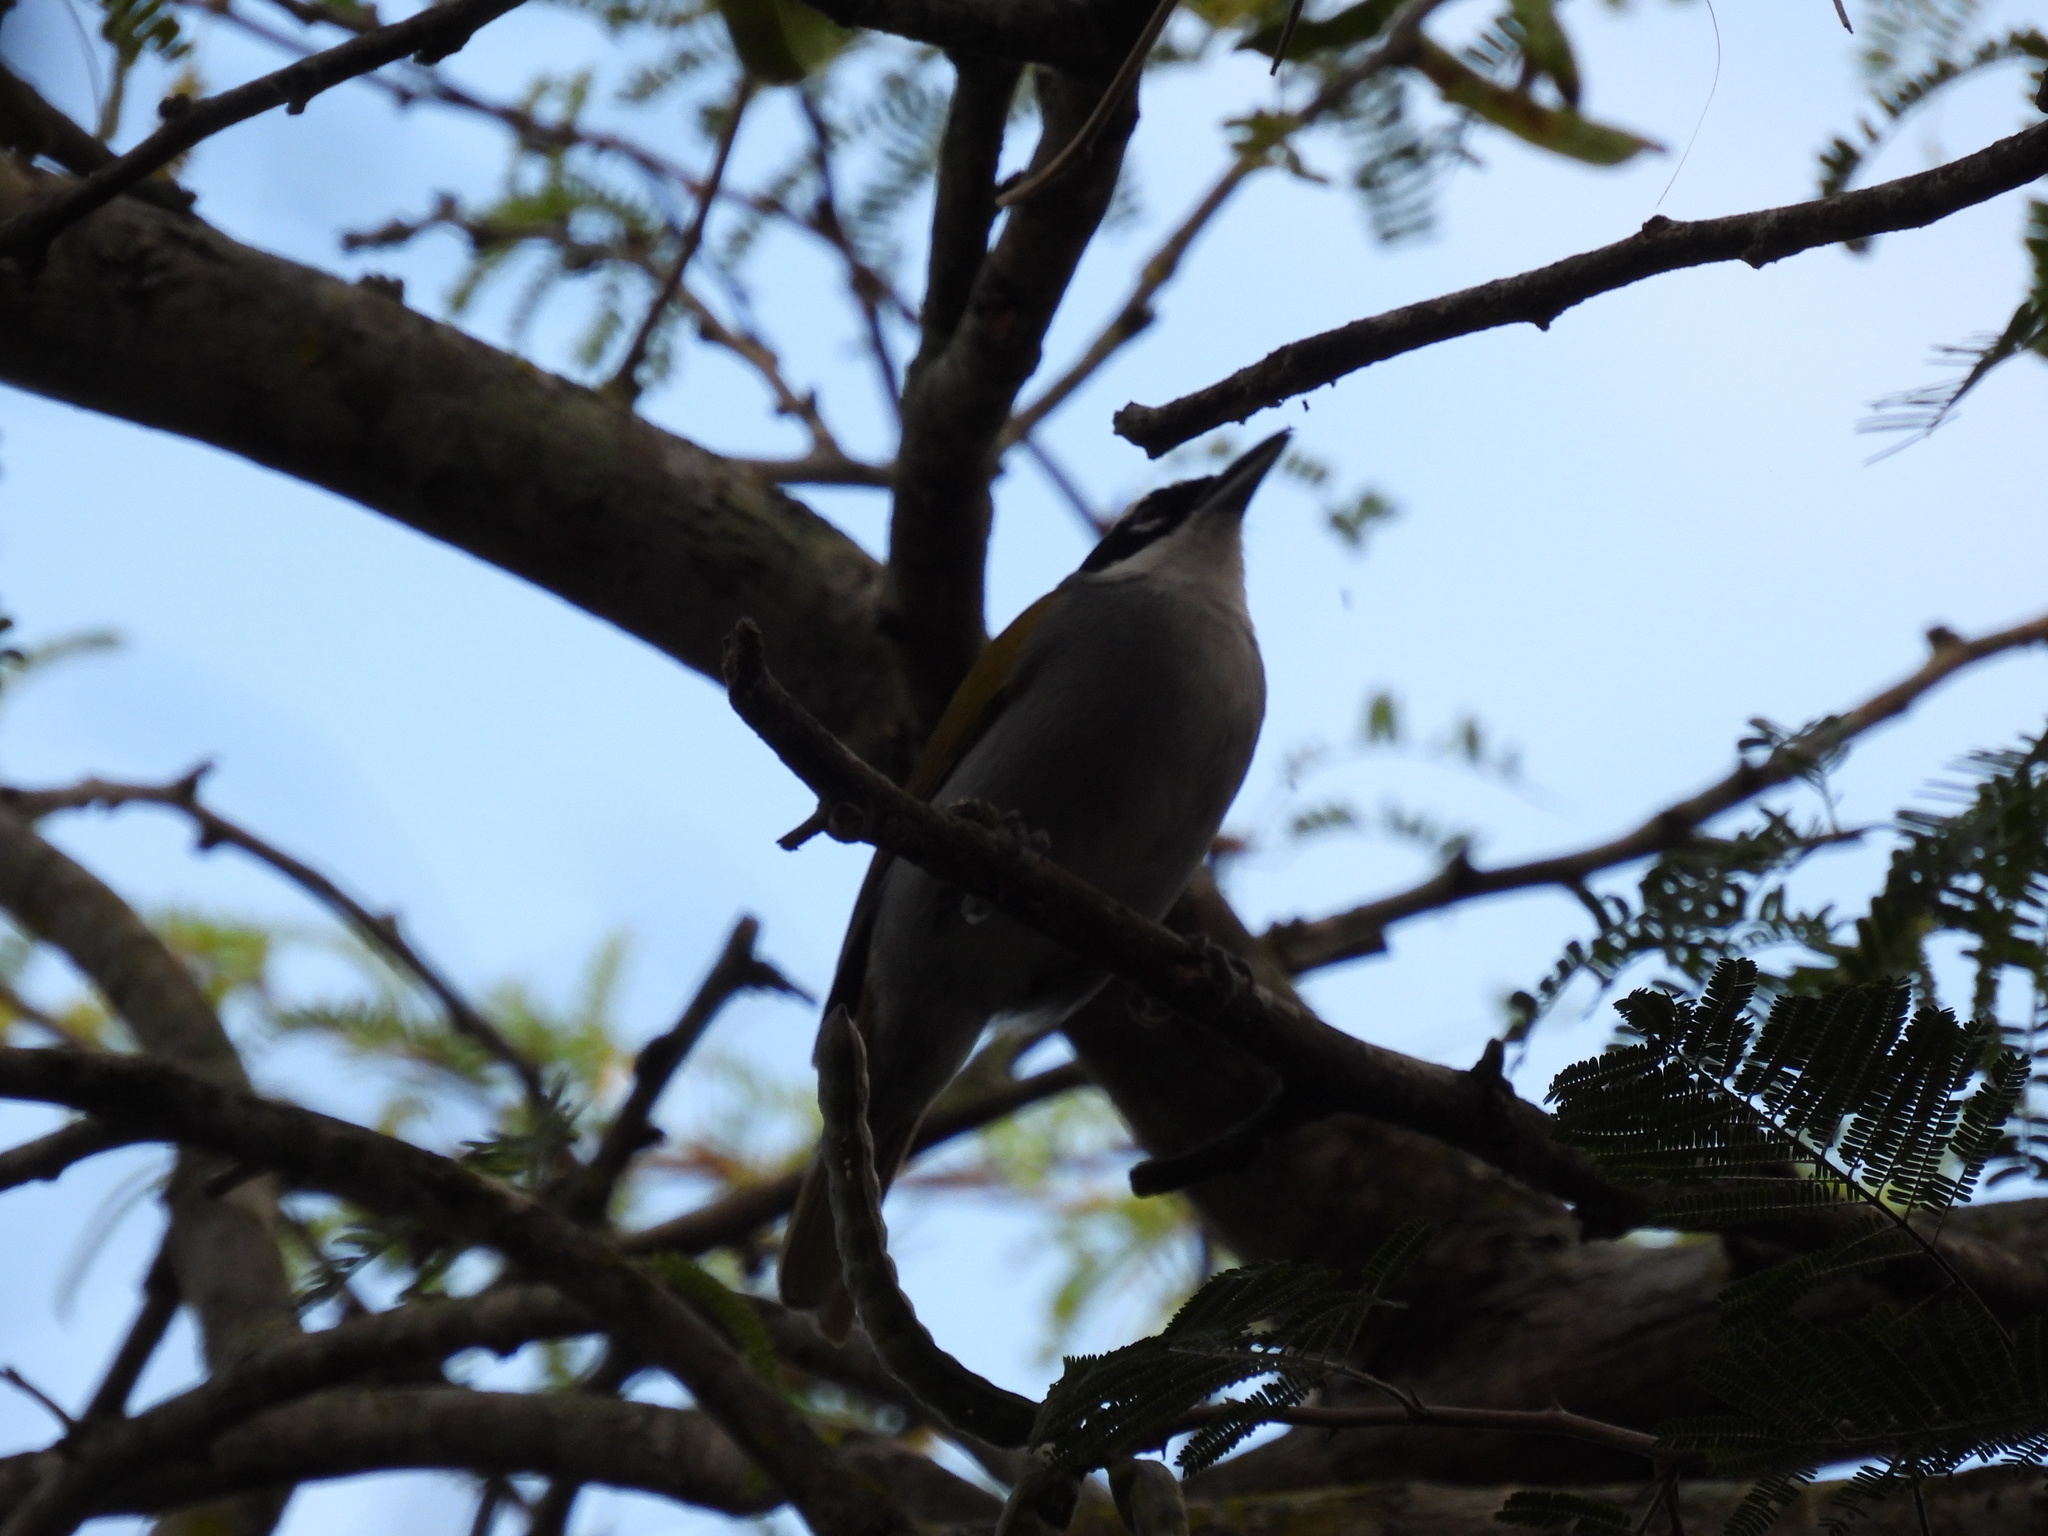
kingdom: Animalia
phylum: Chordata
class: Aves
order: Passeriformes
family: Phaenicophilidae
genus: Phaenicophilus
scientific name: Phaenicophilus palmarum
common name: Black-crowned palm-tanager
